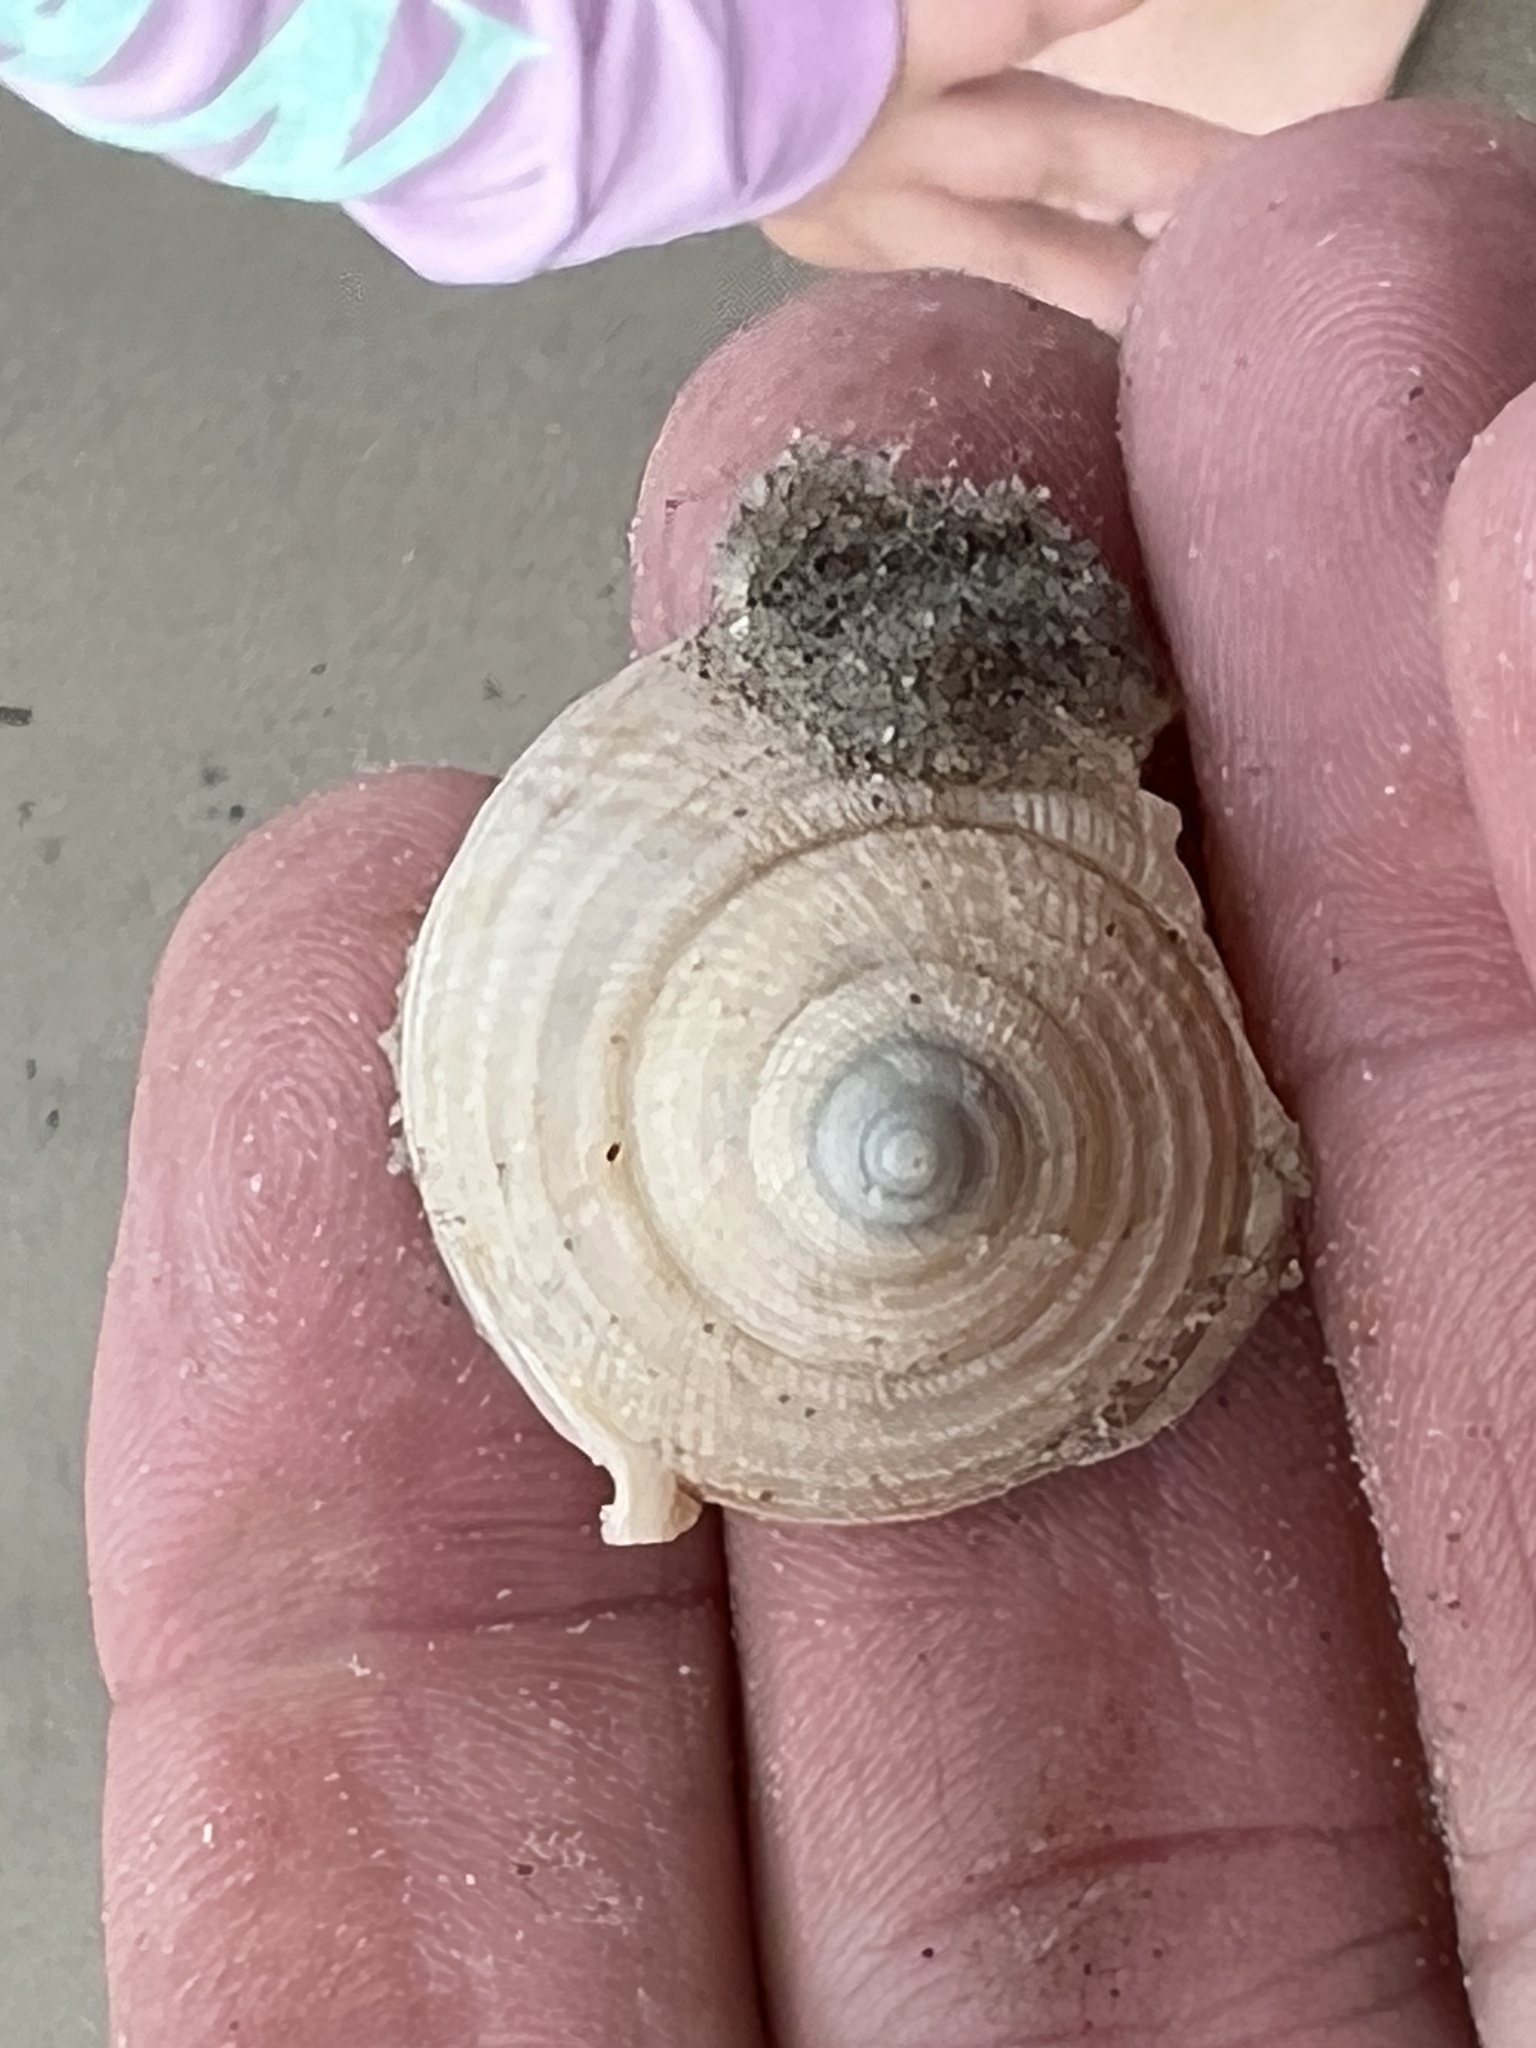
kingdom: Animalia
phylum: Mollusca
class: Gastropoda
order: Littorinimorpha
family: Cassidae
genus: Semicassis
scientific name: Semicassis granulata
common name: Scotch bonnet
